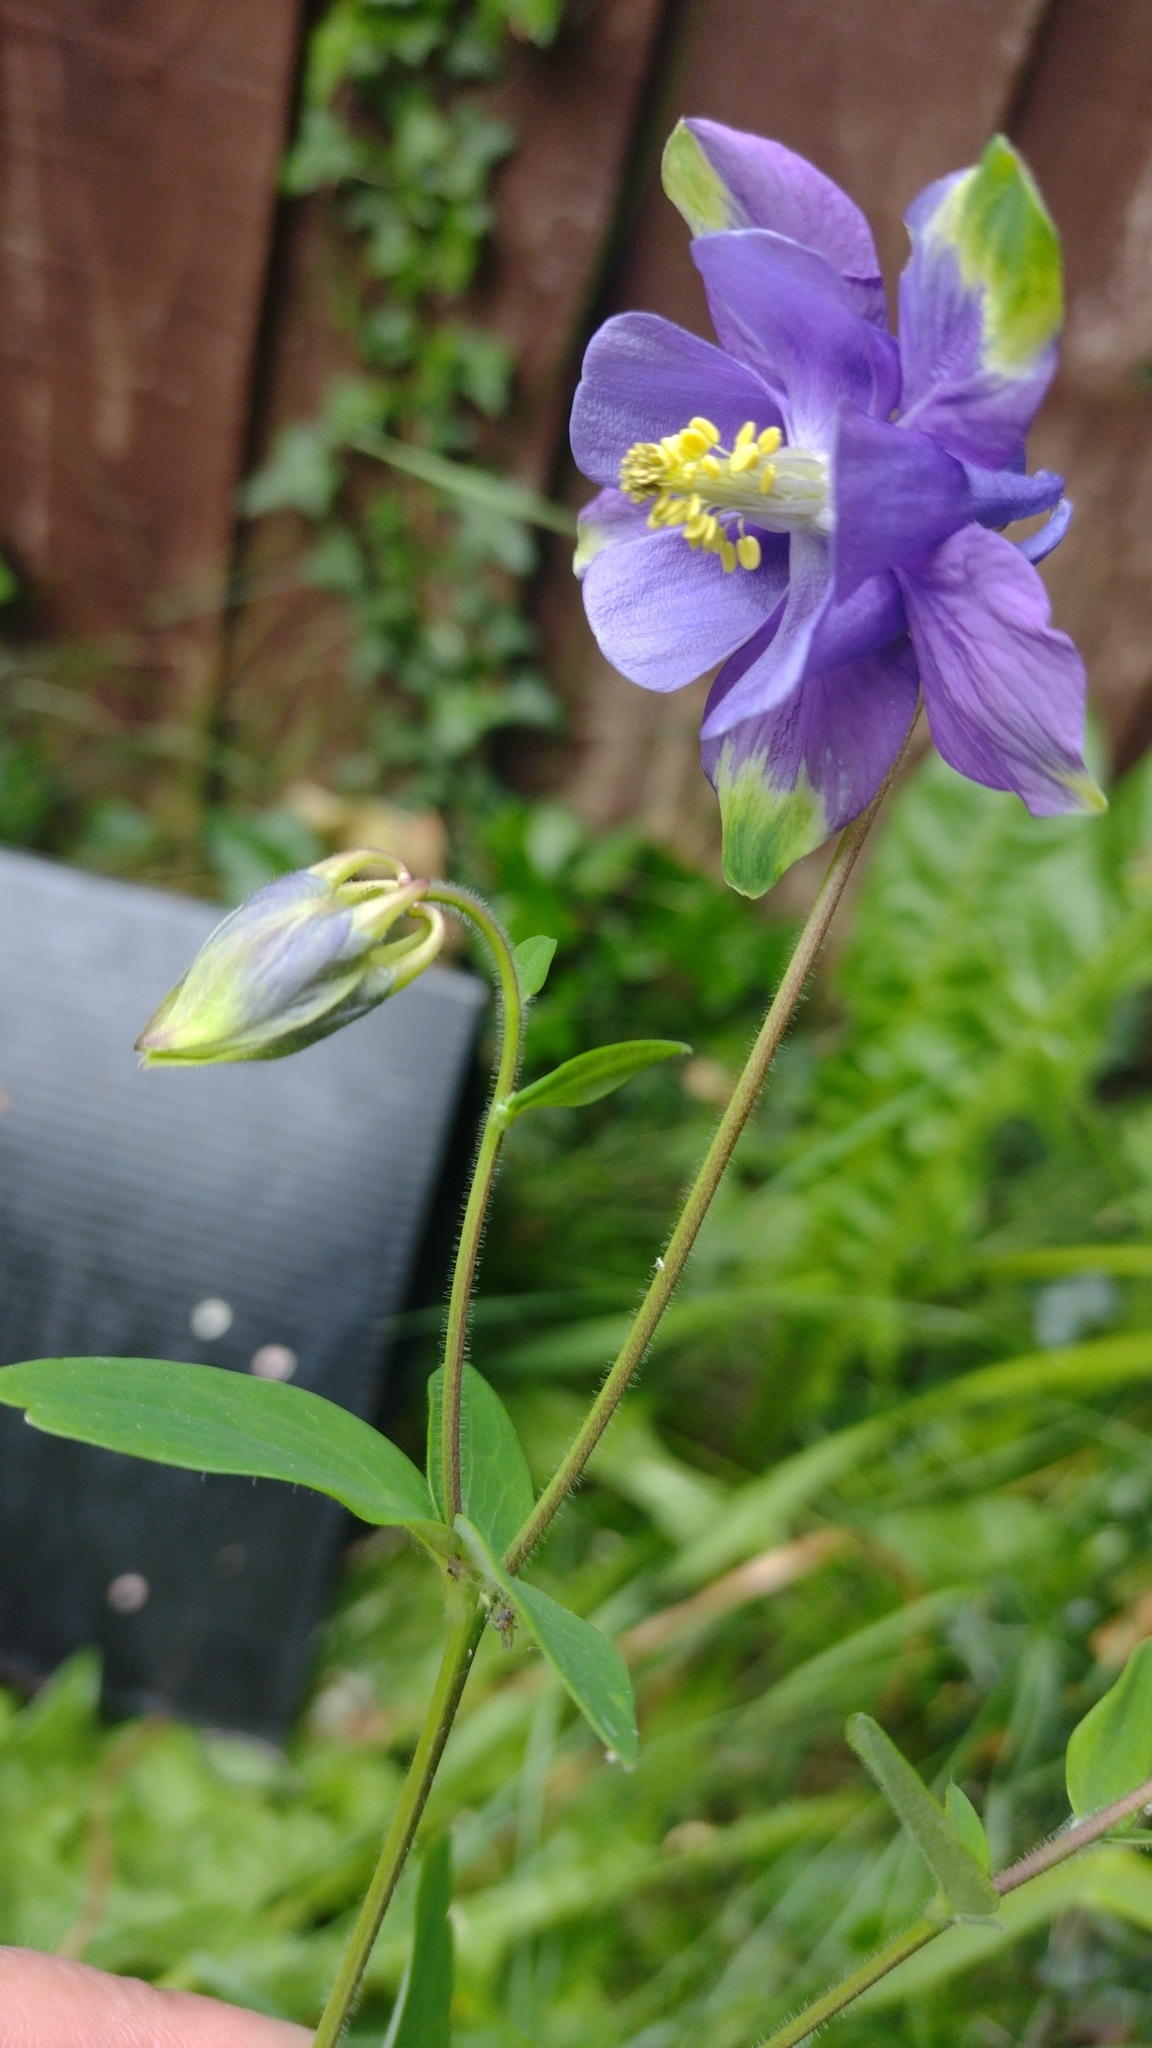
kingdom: Plantae
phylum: Tracheophyta
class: Magnoliopsida
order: Ranunculales
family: Ranunculaceae
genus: Aquilegia
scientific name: Aquilegia vulgaris
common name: Columbine
